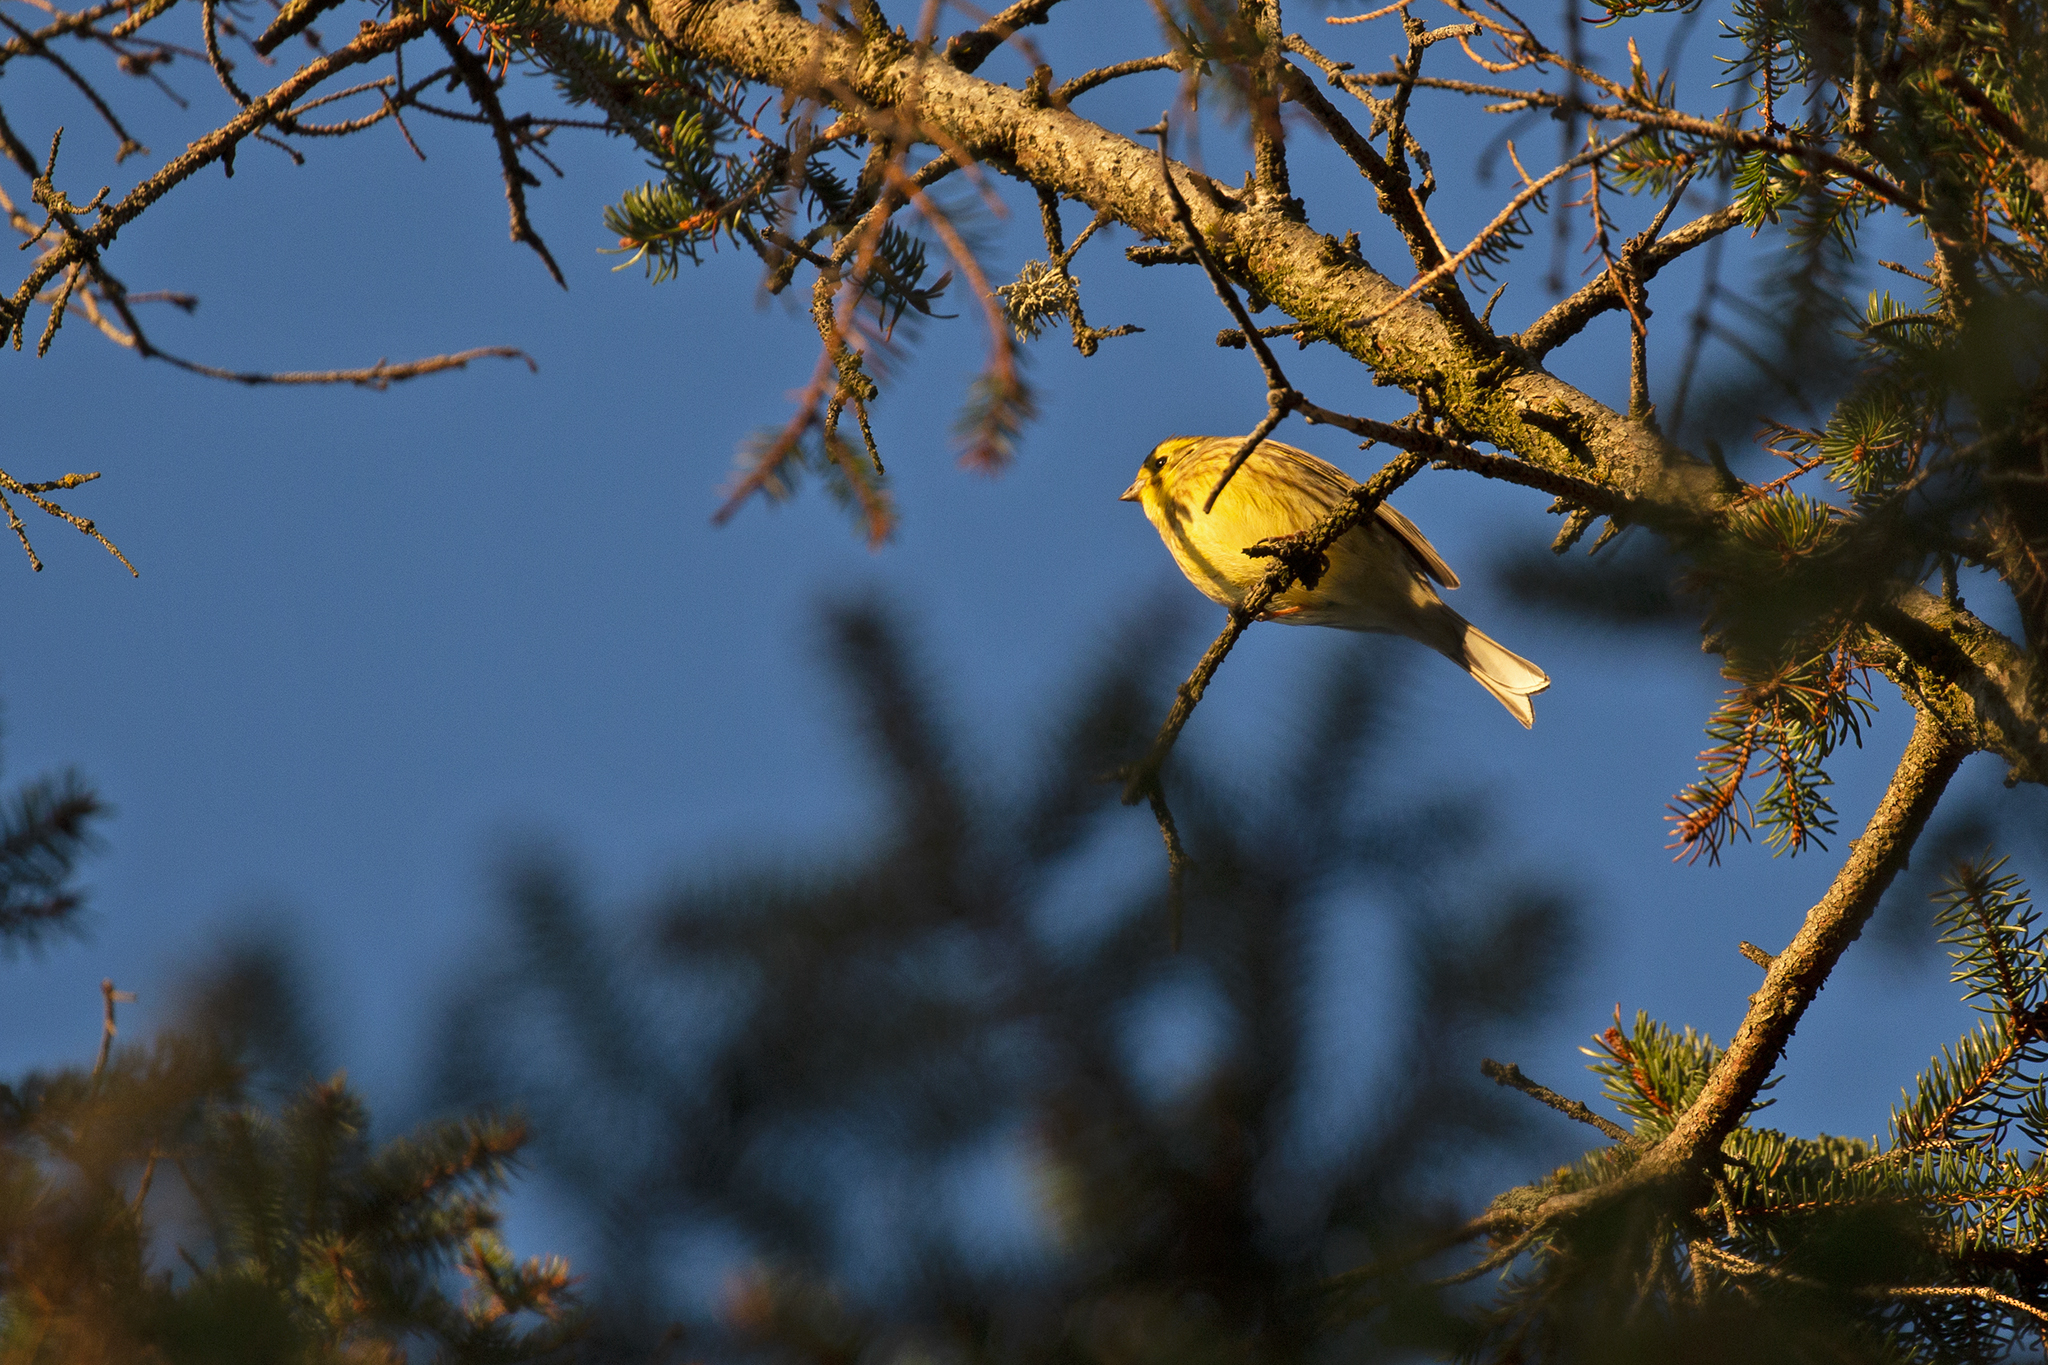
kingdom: Animalia
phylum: Chordata
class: Aves
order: Passeriformes
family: Emberizidae
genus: Emberiza
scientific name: Emberiza citrinella
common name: Yellowhammer
